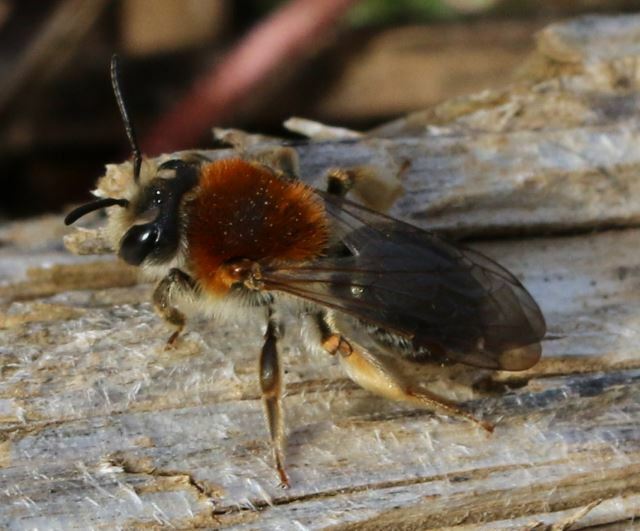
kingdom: Animalia
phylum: Arthropoda
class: Insecta
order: Hymenoptera
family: Andrenidae
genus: Andrena
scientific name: Andrena haemorrhoa
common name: Early mining bee
